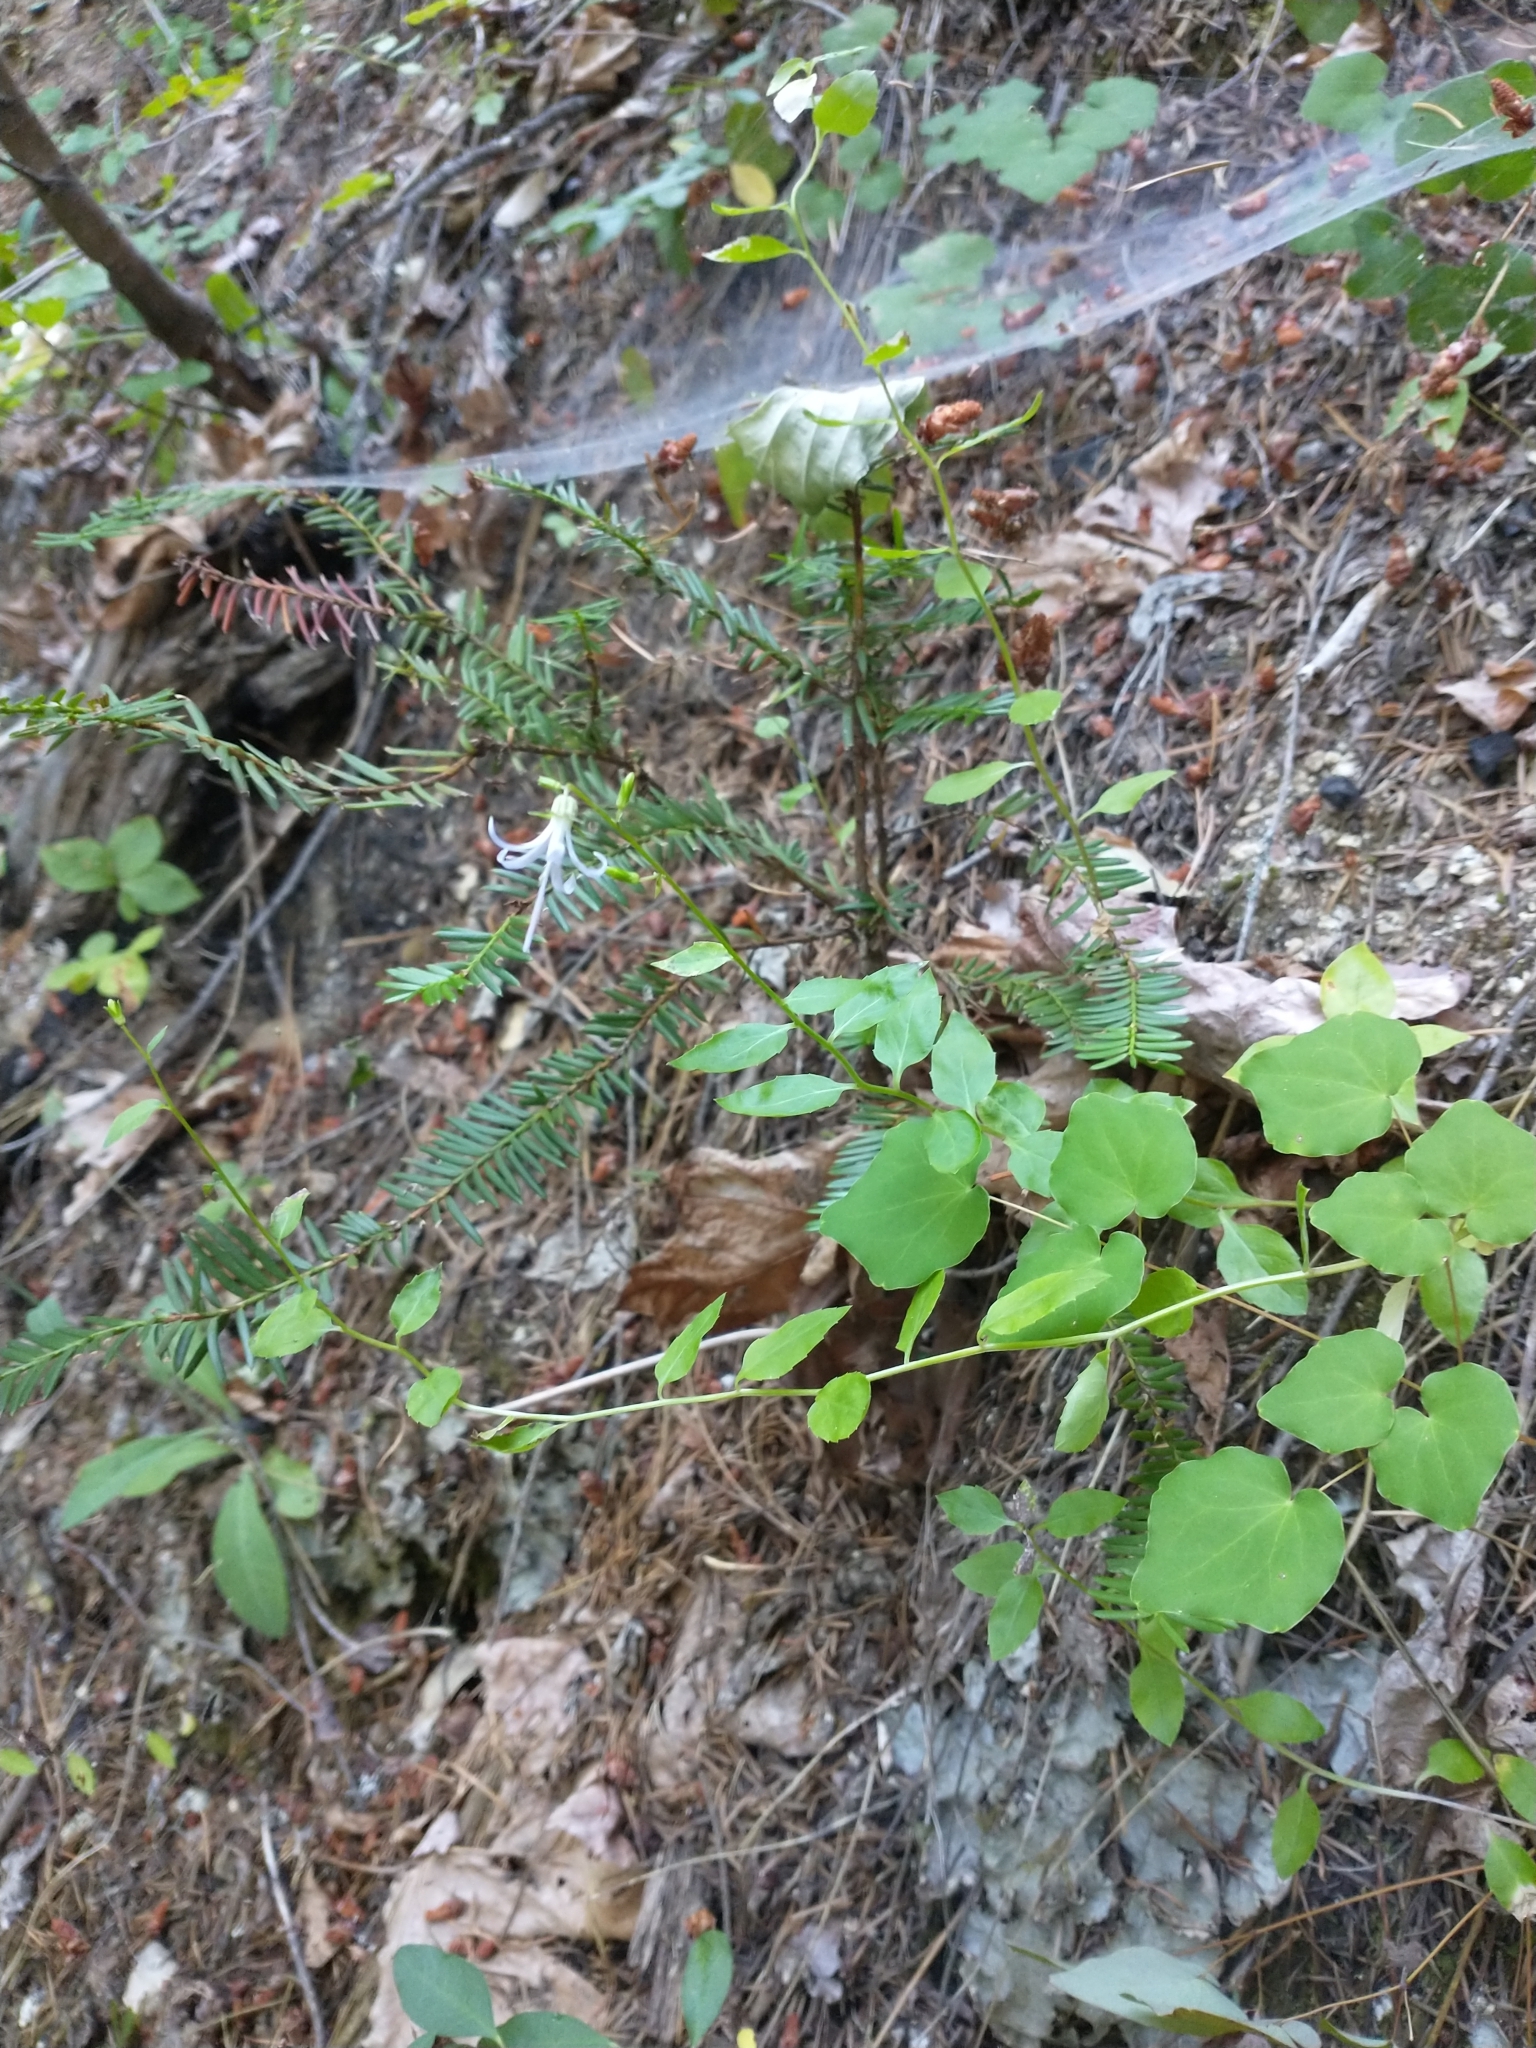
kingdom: Plantae
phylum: Tracheophyta
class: Magnoliopsida
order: Asterales
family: Campanulaceae
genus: Smithiastrum
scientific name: Smithiastrum prenanthoides
